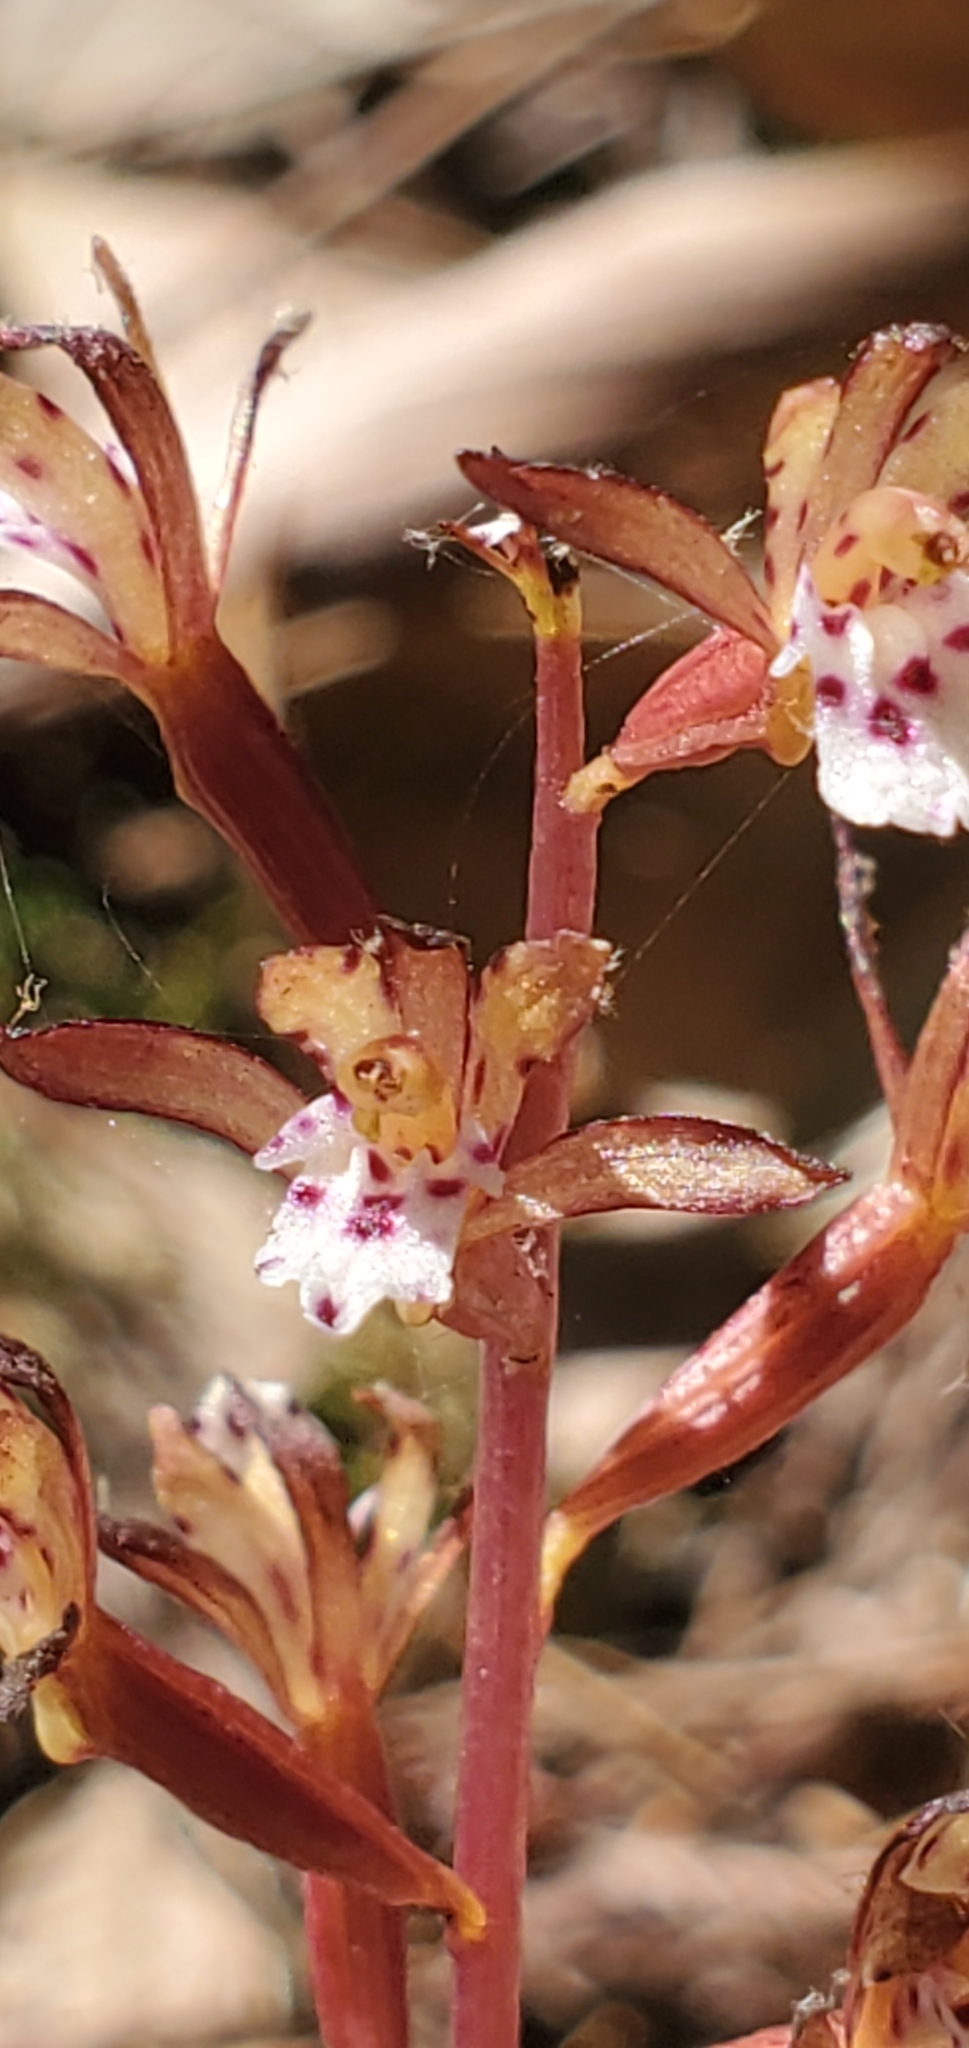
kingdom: Plantae
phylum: Tracheophyta
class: Liliopsida
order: Asparagales
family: Orchidaceae
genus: Corallorhiza
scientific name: Corallorhiza maculata
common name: Spotted coralroot
